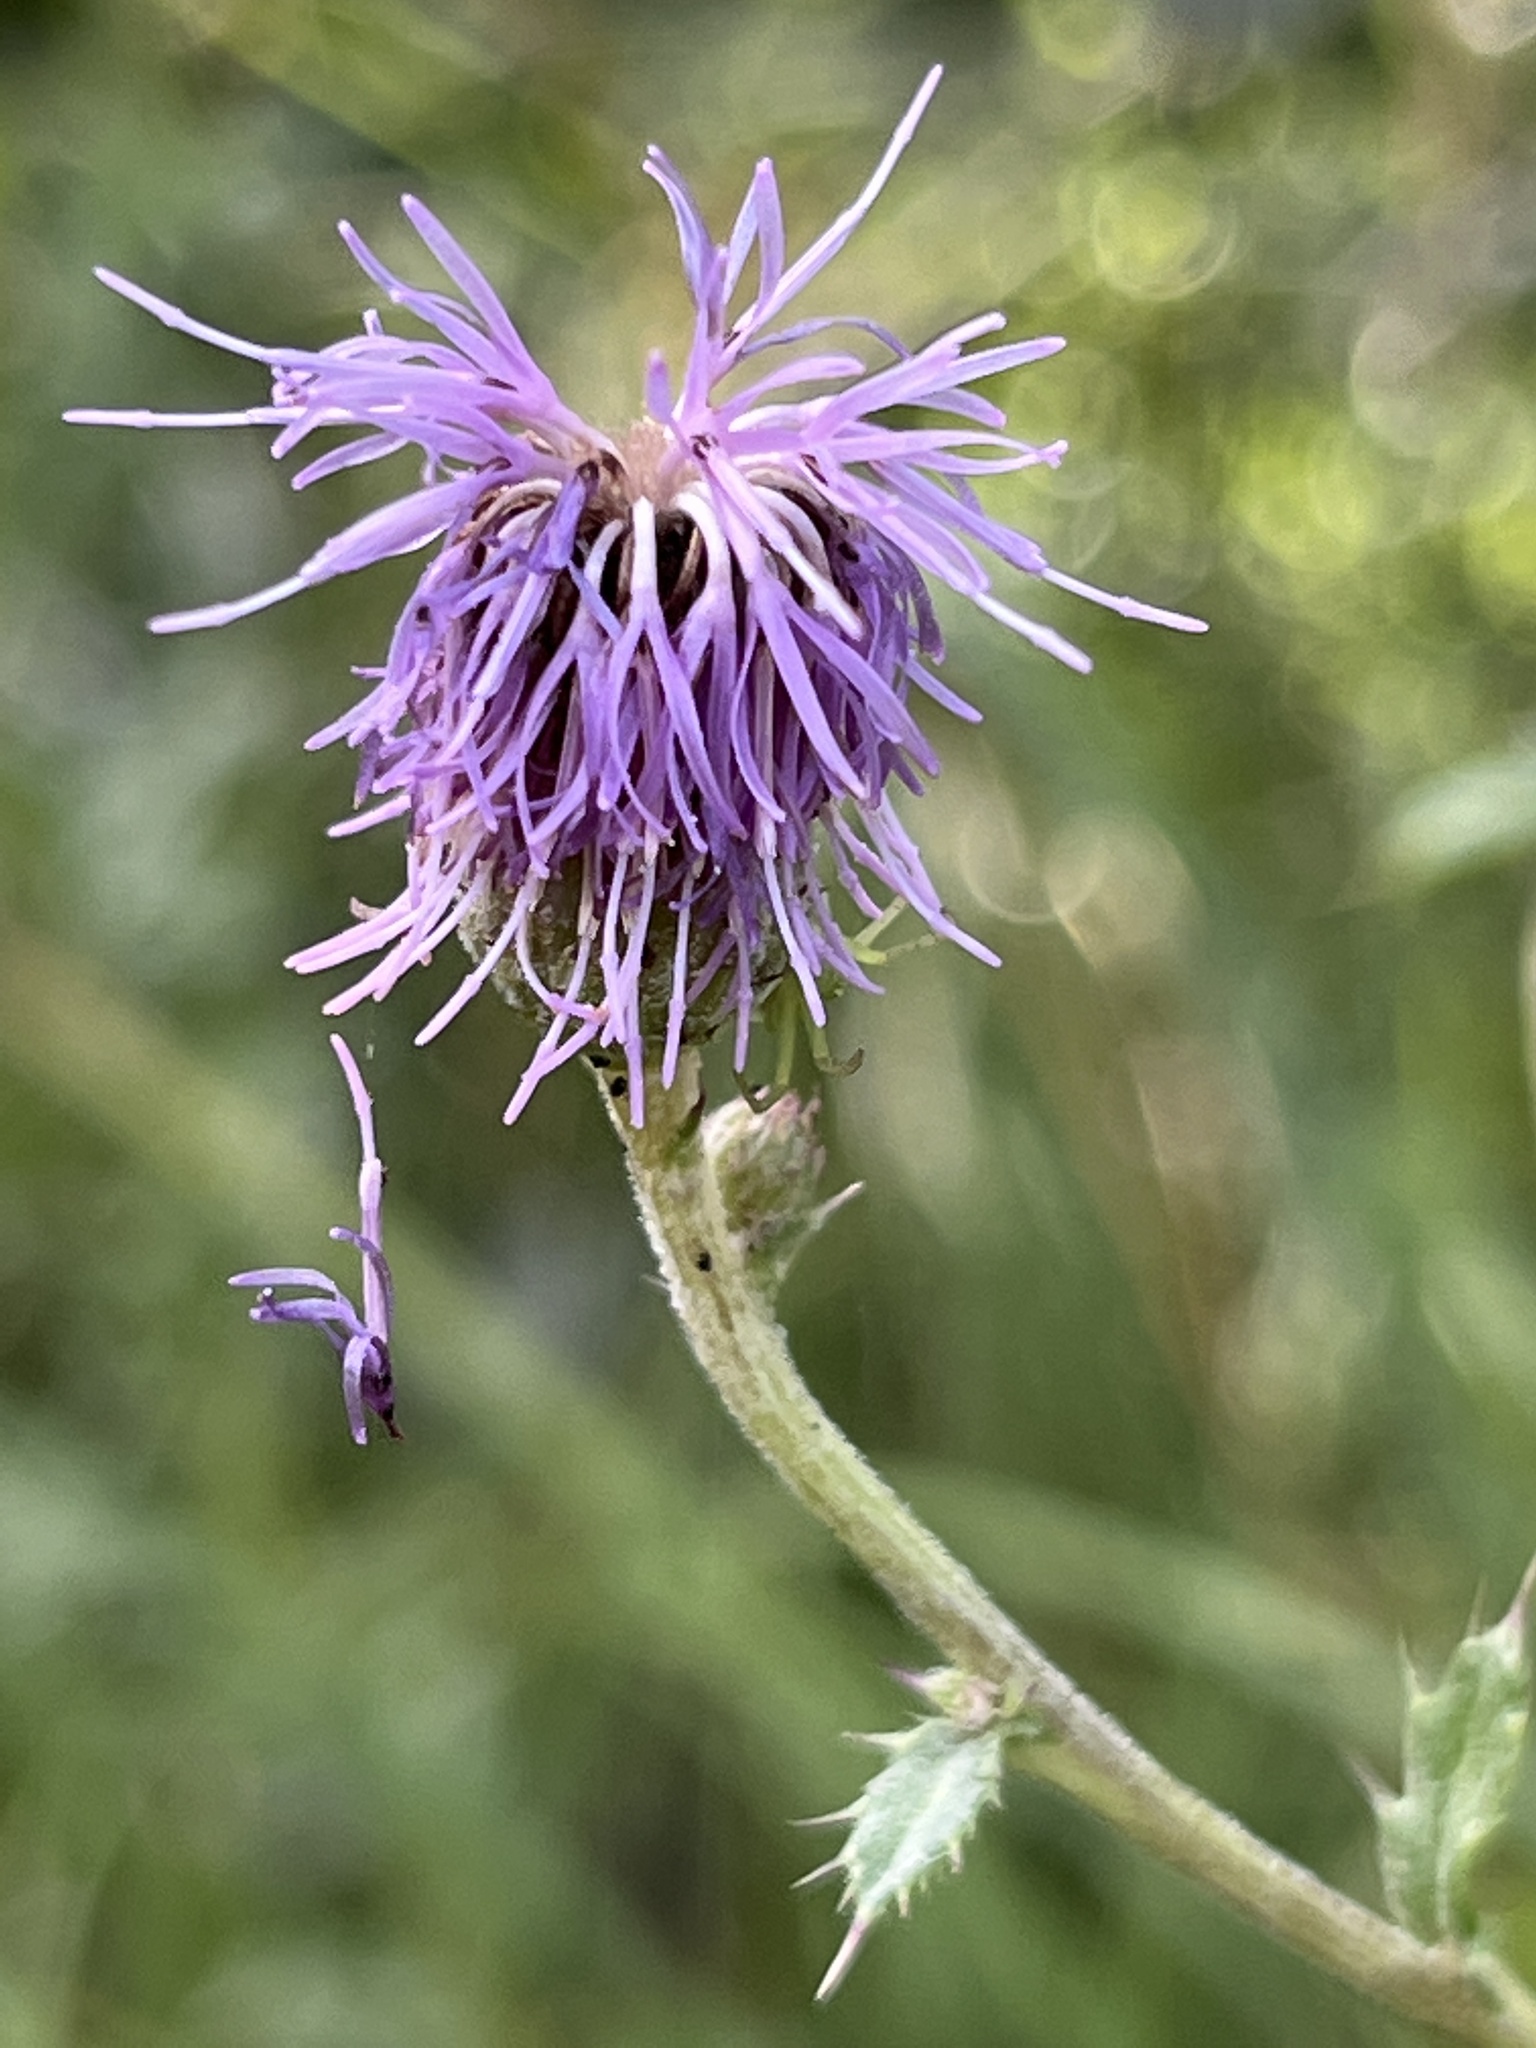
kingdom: Plantae
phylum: Tracheophyta
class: Magnoliopsida
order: Asterales
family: Asteraceae
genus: Cirsium
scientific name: Cirsium arvense
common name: Creeping thistle
